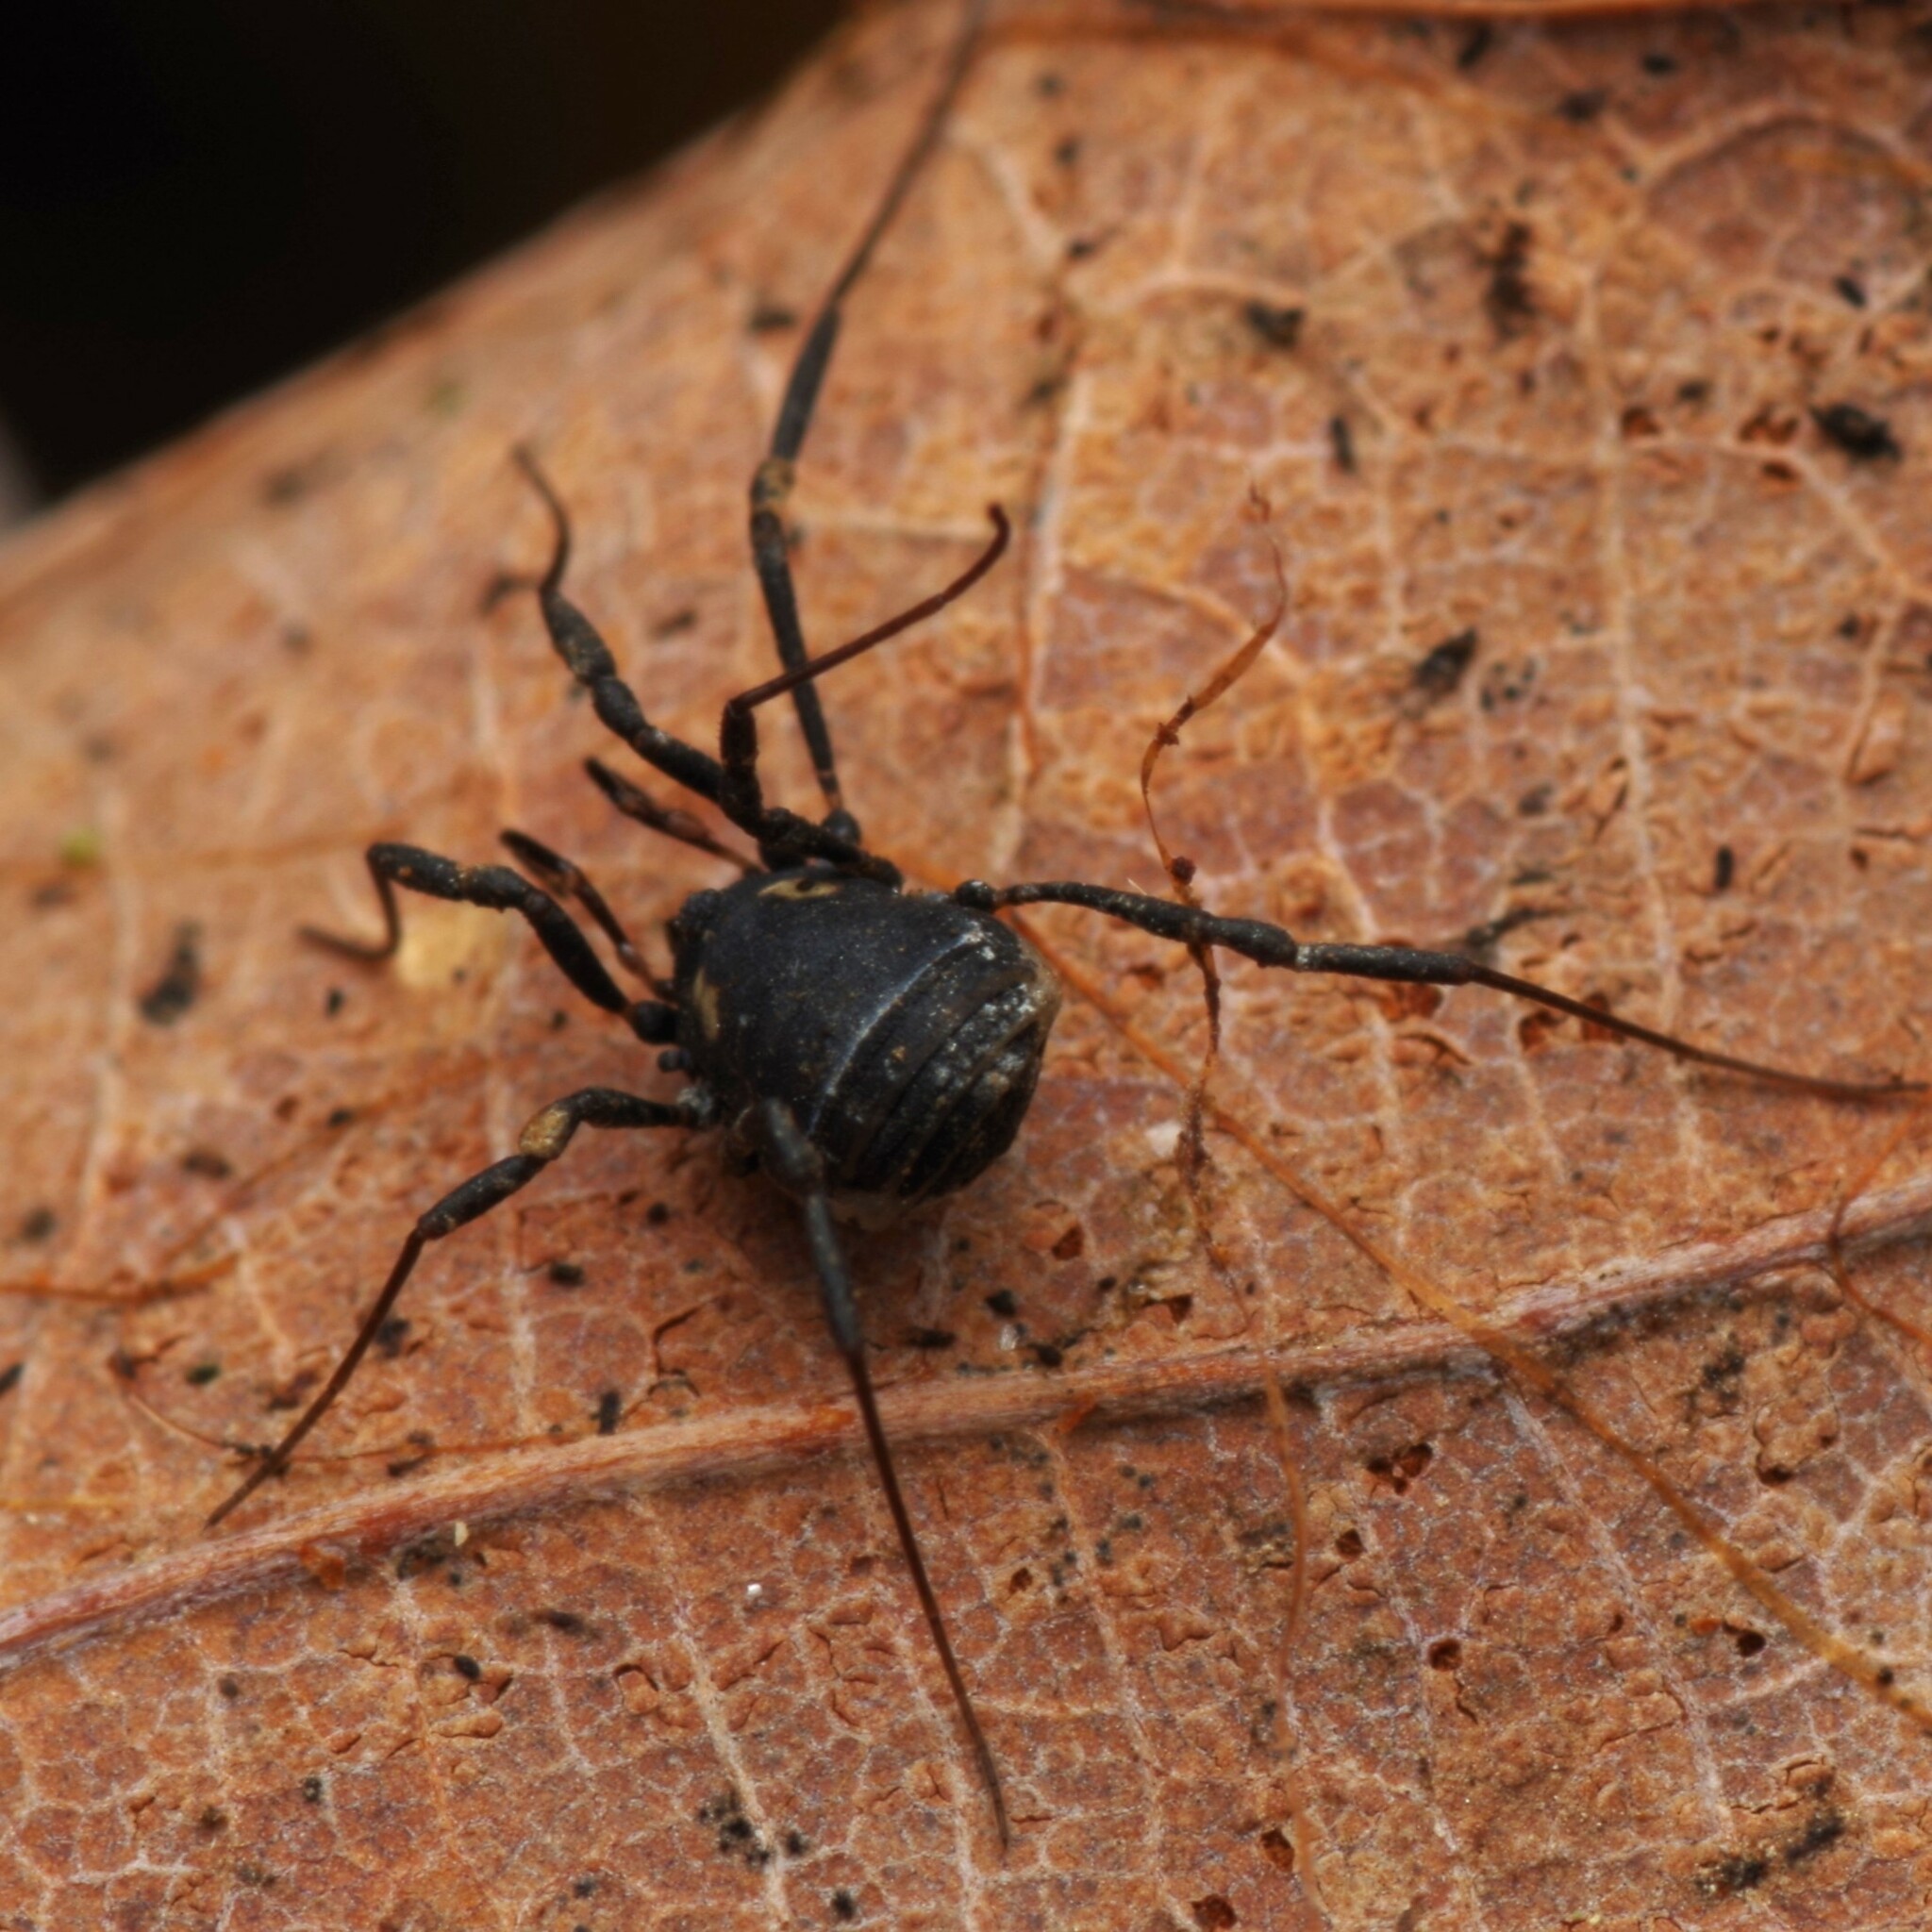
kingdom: Animalia
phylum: Arthropoda
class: Arachnida
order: Opiliones
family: Nemastomatidae
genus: Nemastoma
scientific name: Nemastoma bimaculatum
